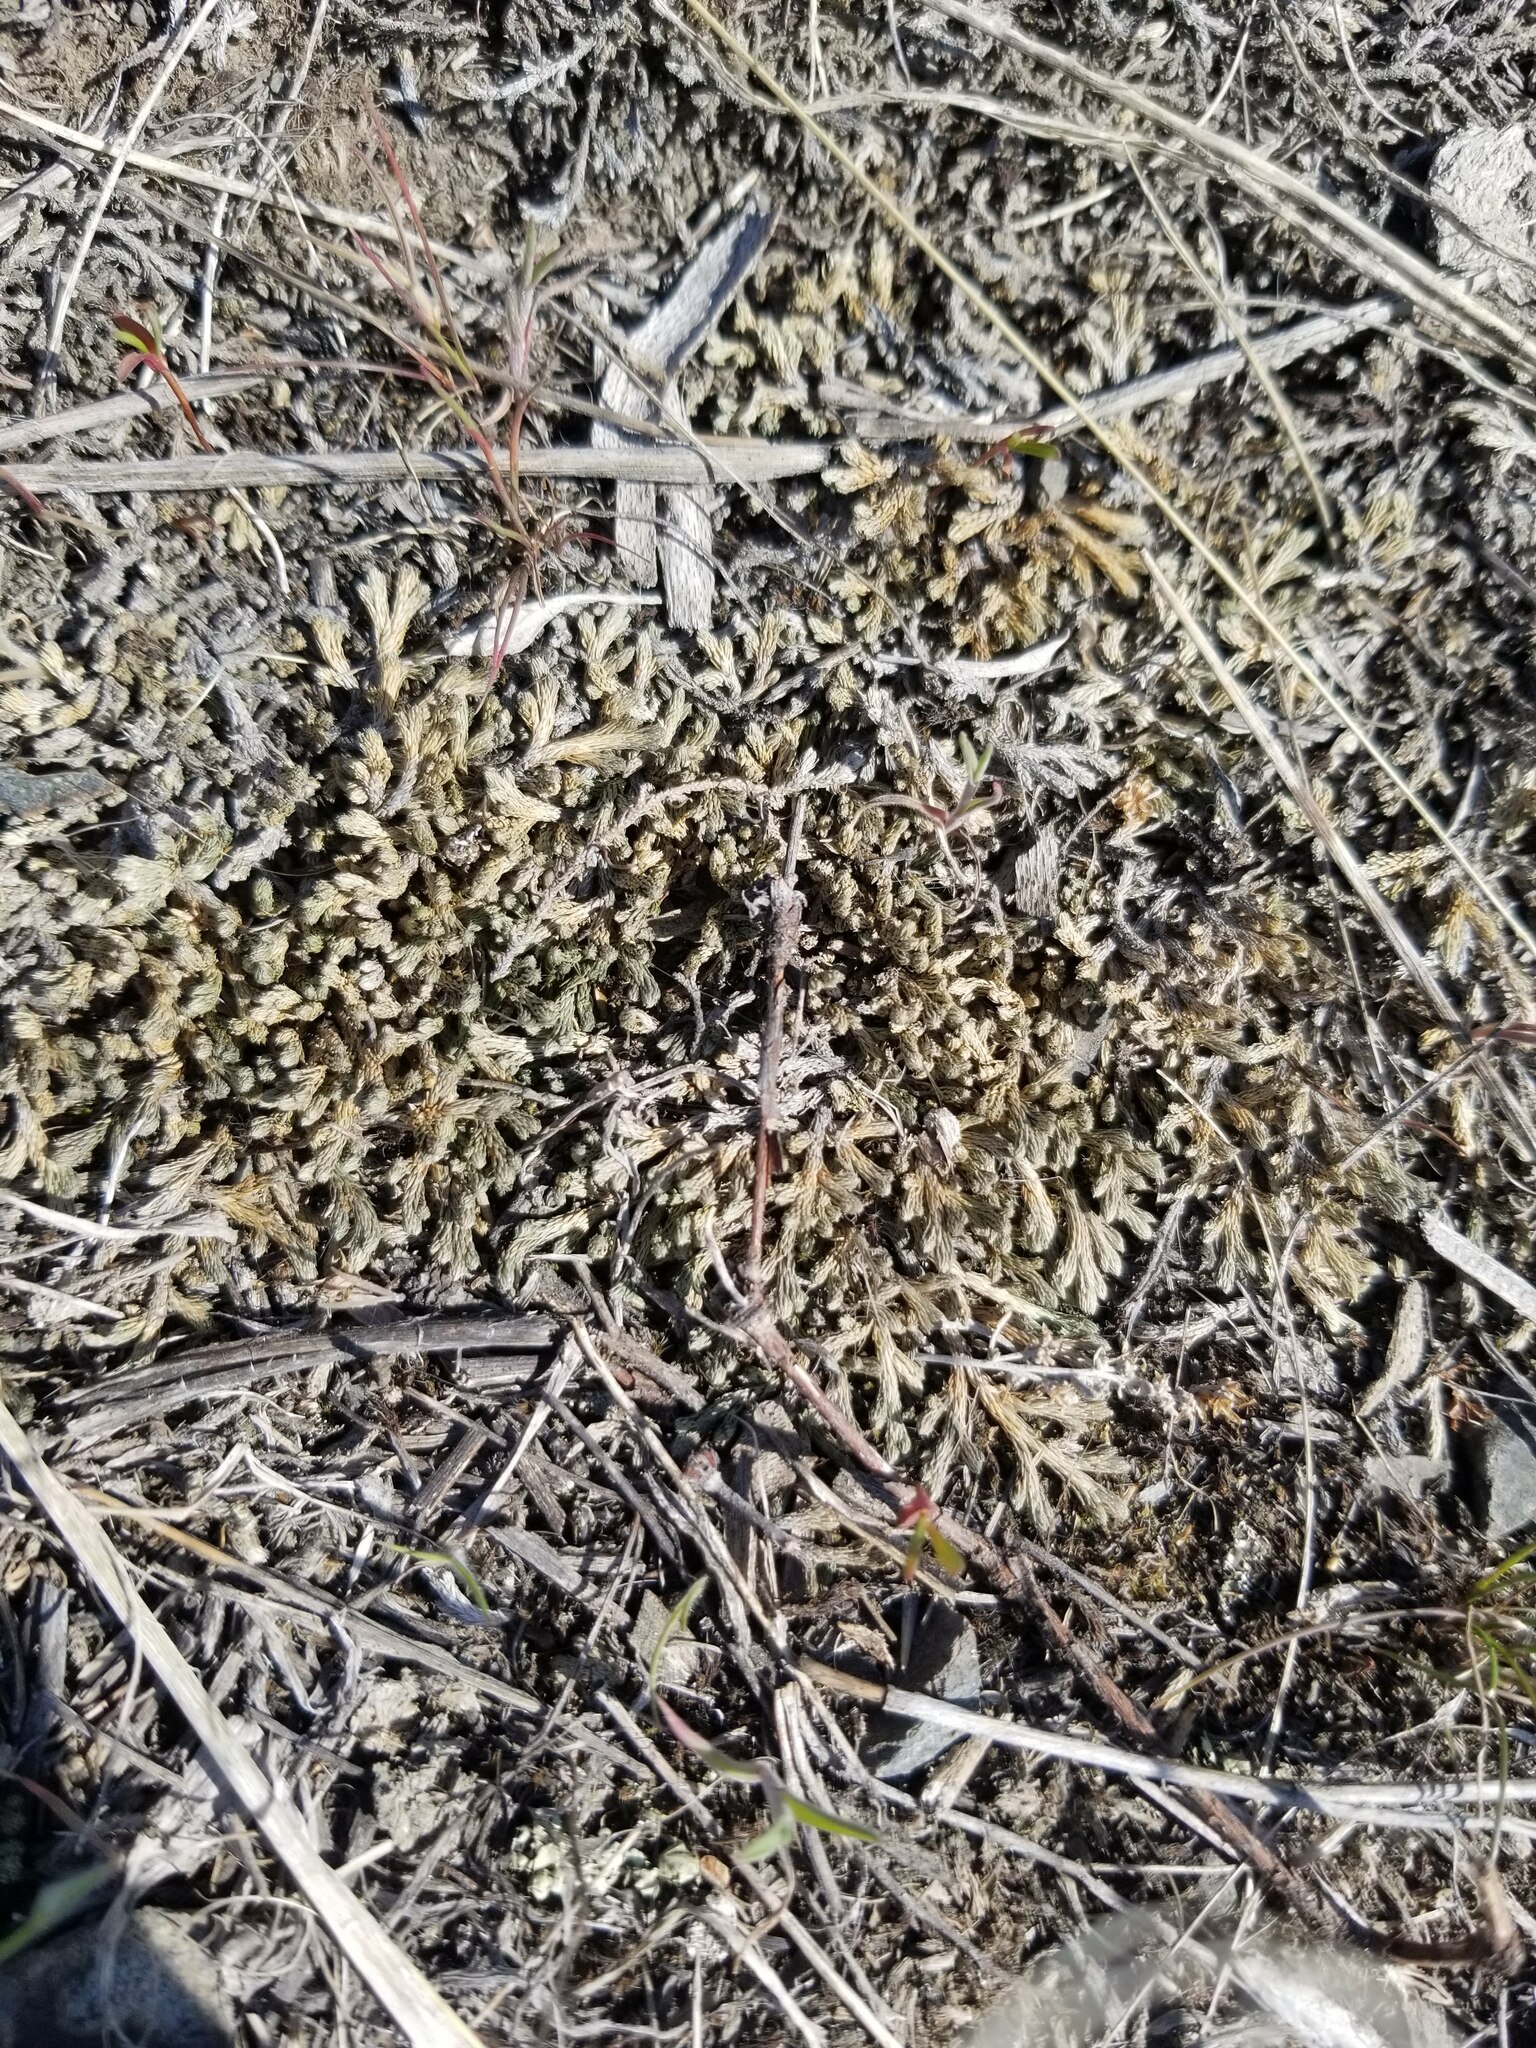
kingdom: Plantae
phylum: Tracheophyta
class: Lycopodiopsida
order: Selaginellales
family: Selaginellaceae
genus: Selaginella
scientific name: Selaginella wallacei
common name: Wallace's selaginella
